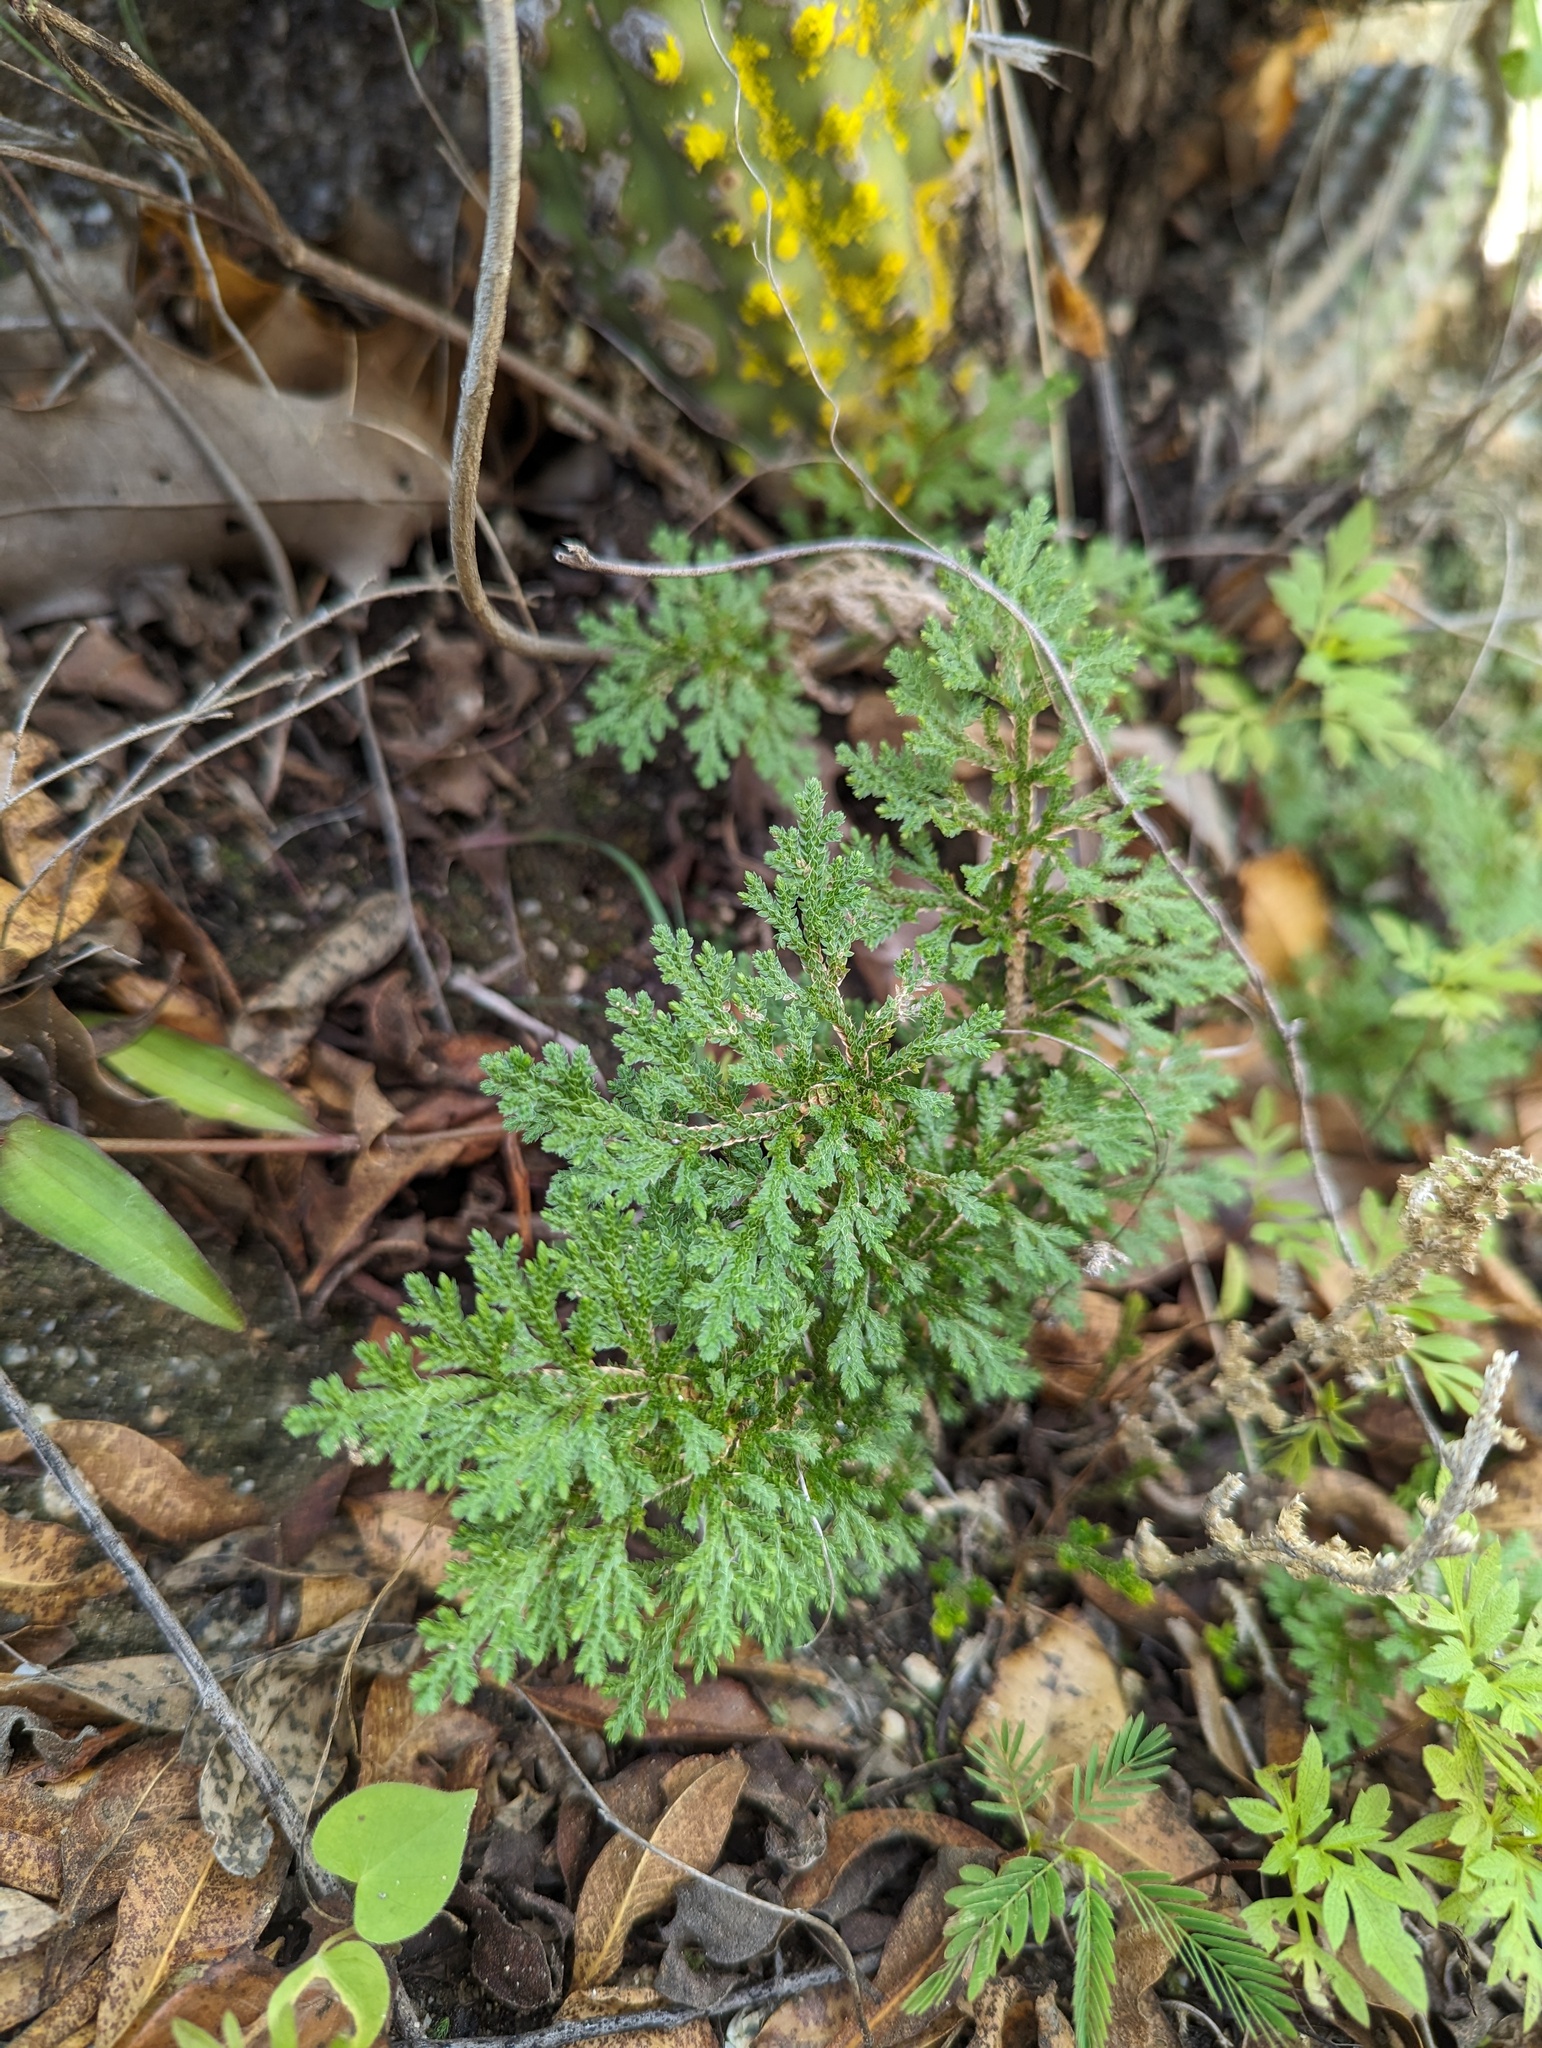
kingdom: Plantae
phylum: Tracheophyta
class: Lycopodiopsida
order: Selaginellales
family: Selaginellaceae
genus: Selaginella
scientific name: Selaginella pallescens
